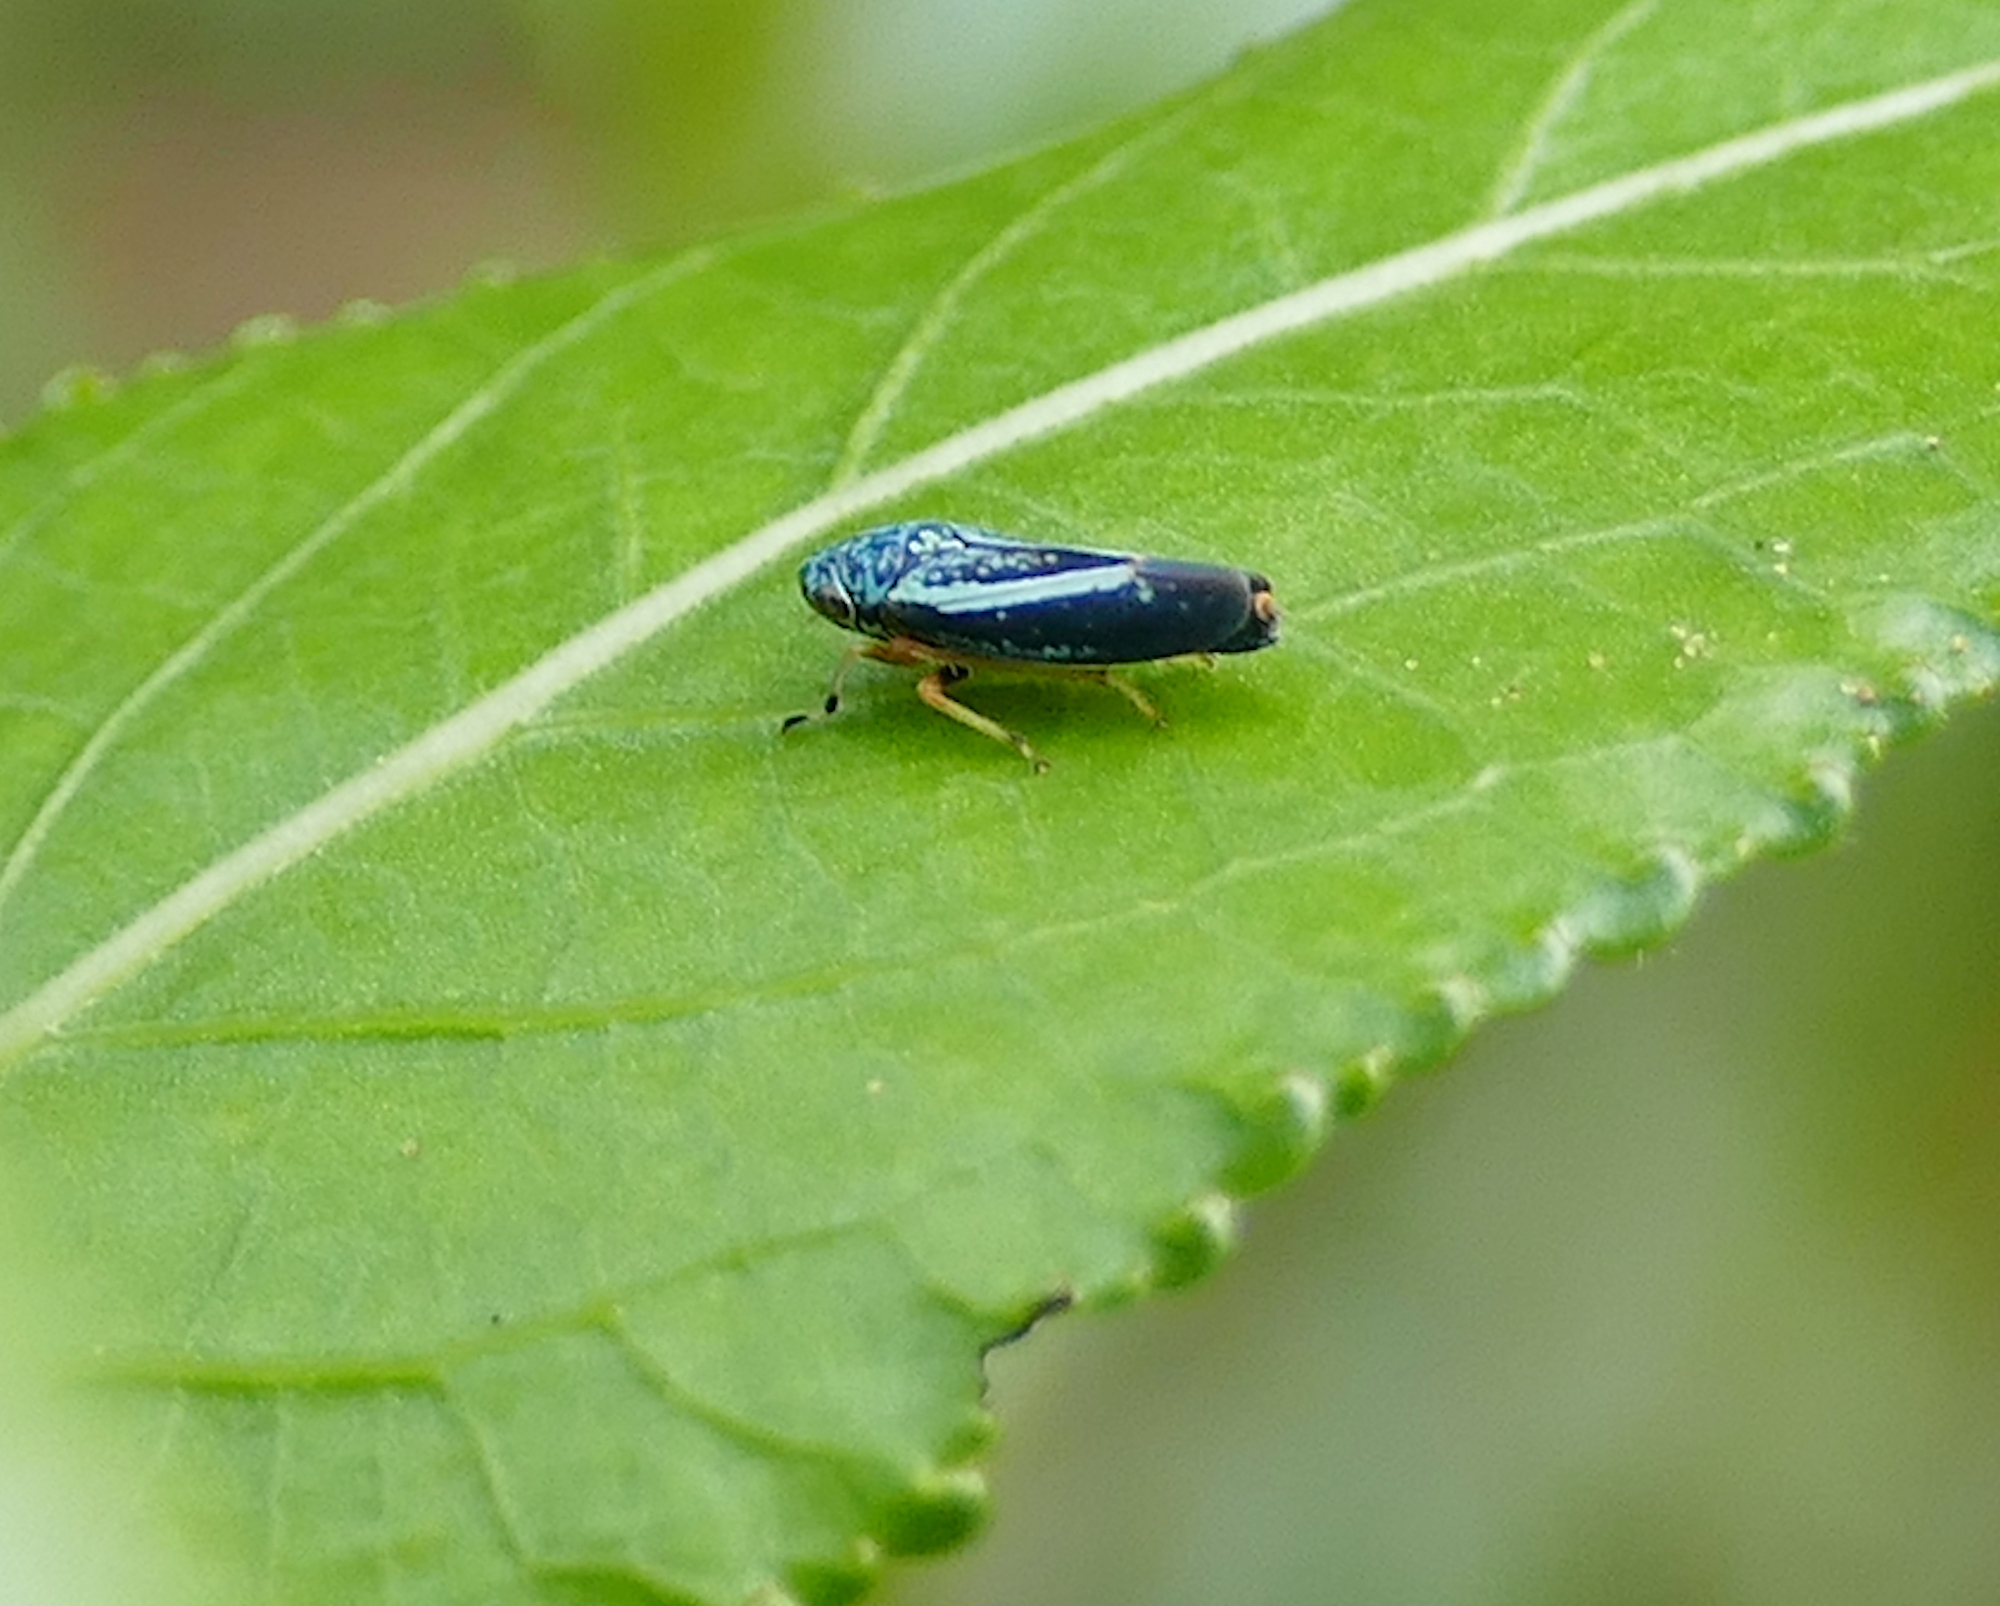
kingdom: Animalia
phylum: Arthropoda
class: Insecta
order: Hemiptera
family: Cicadellidae
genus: Graphocephala
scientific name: Graphocephala lugubris
